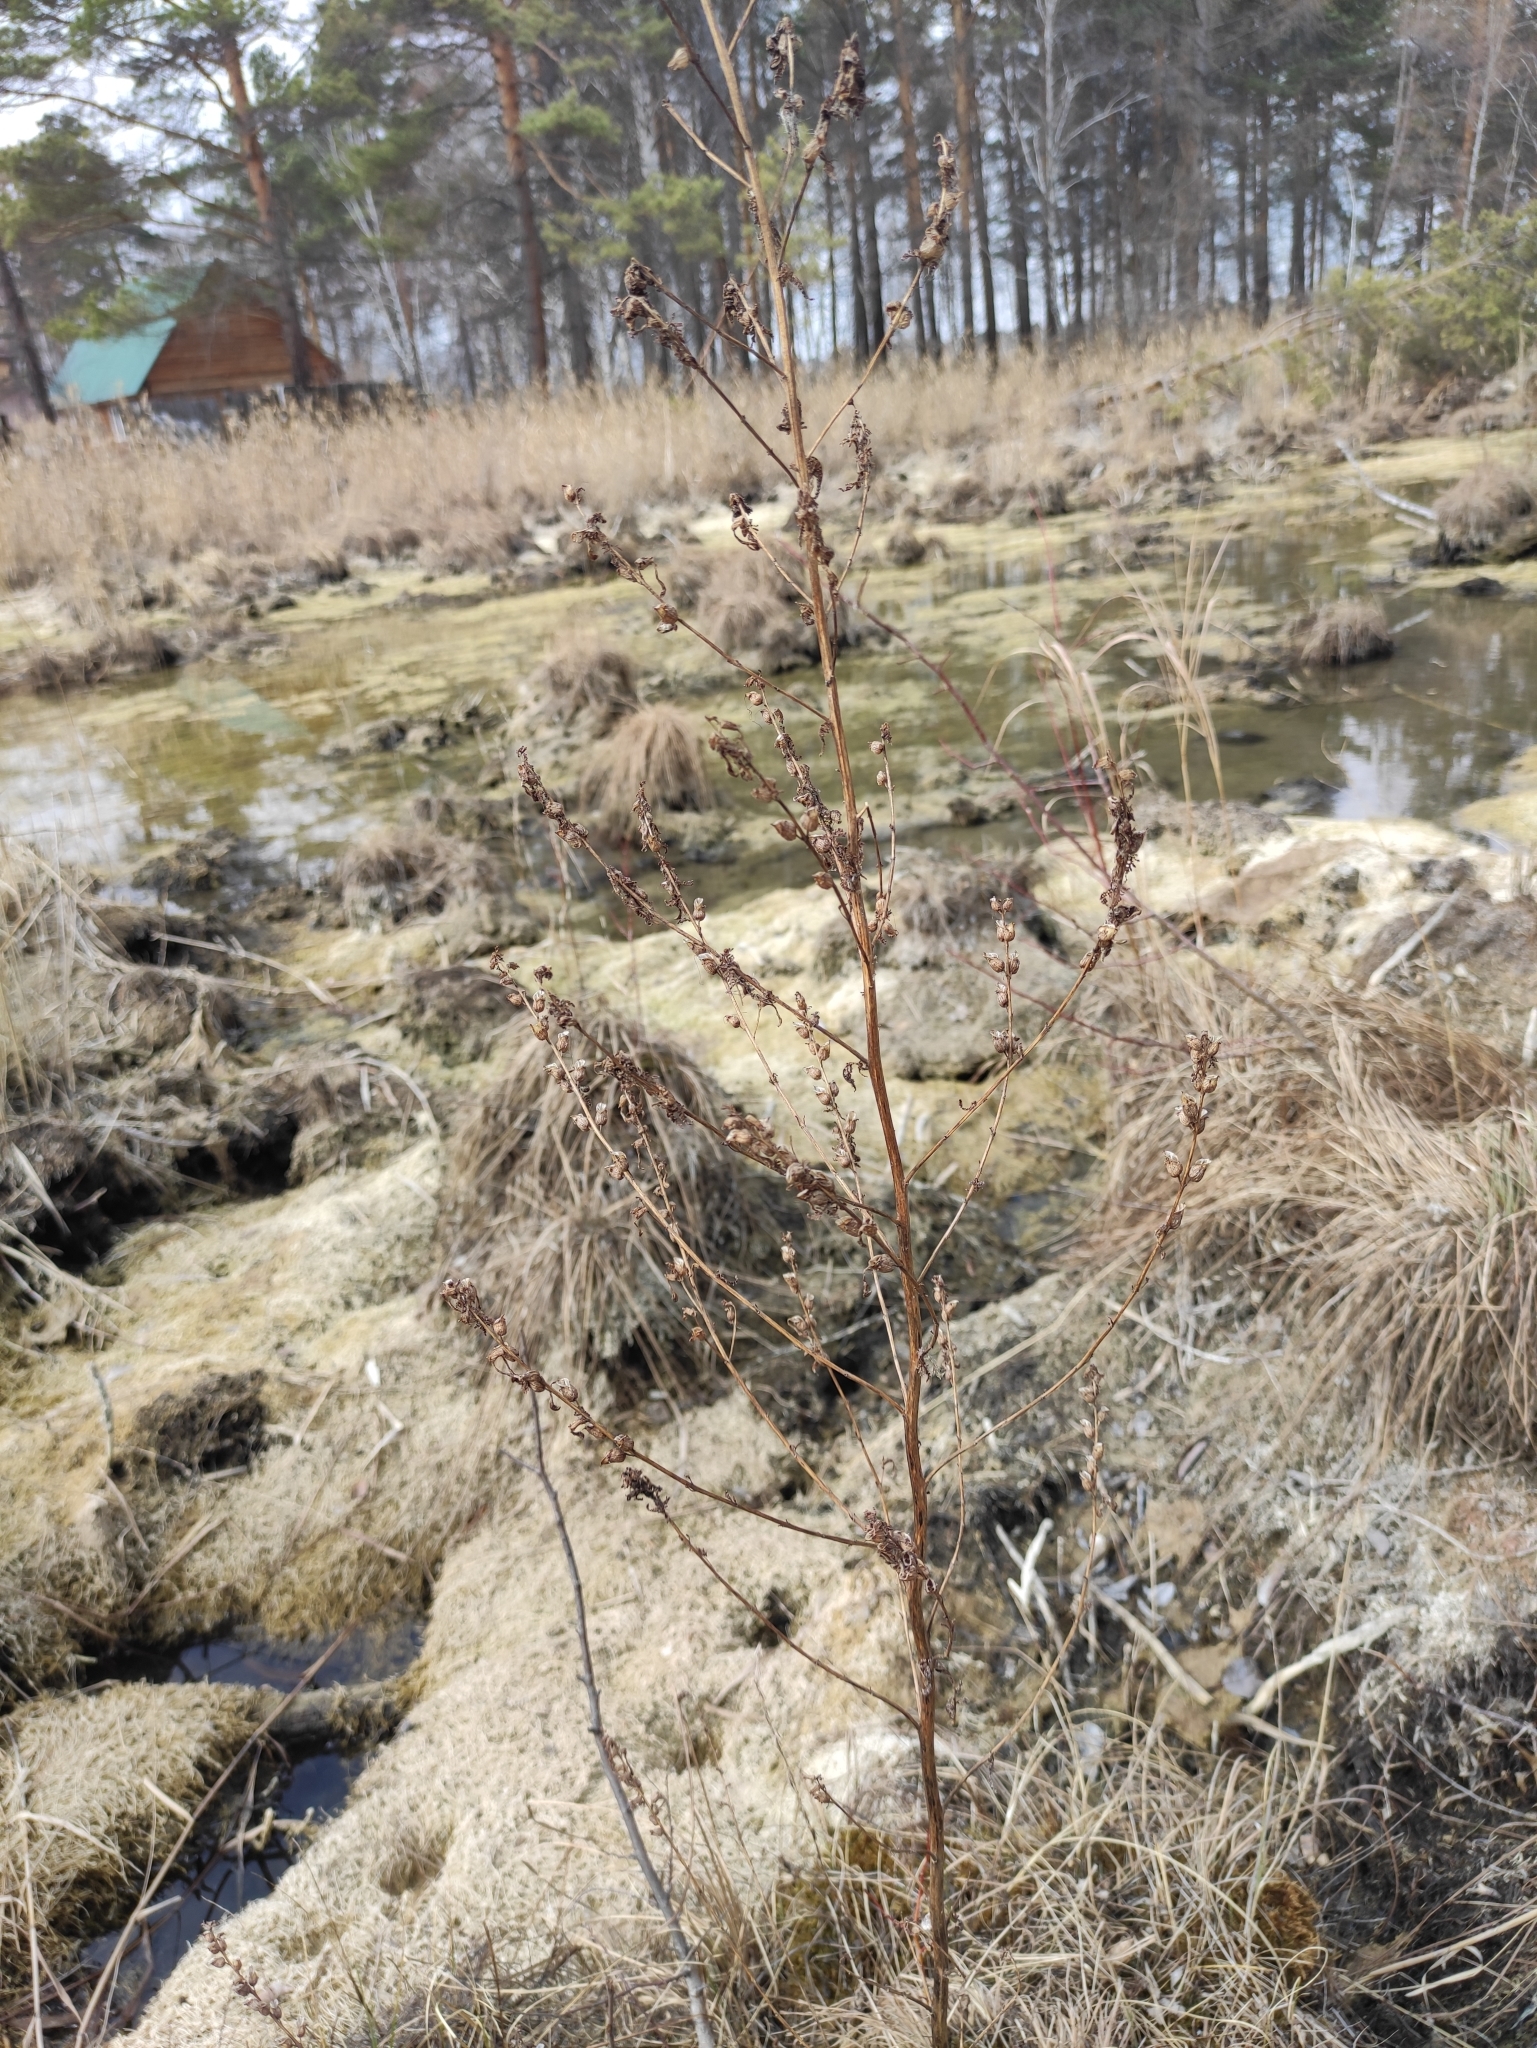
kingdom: Plantae
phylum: Tracheophyta
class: Magnoliopsida
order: Lamiales
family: Orobanchaceae
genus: Pedicularis
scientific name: Pedicularis karoi
